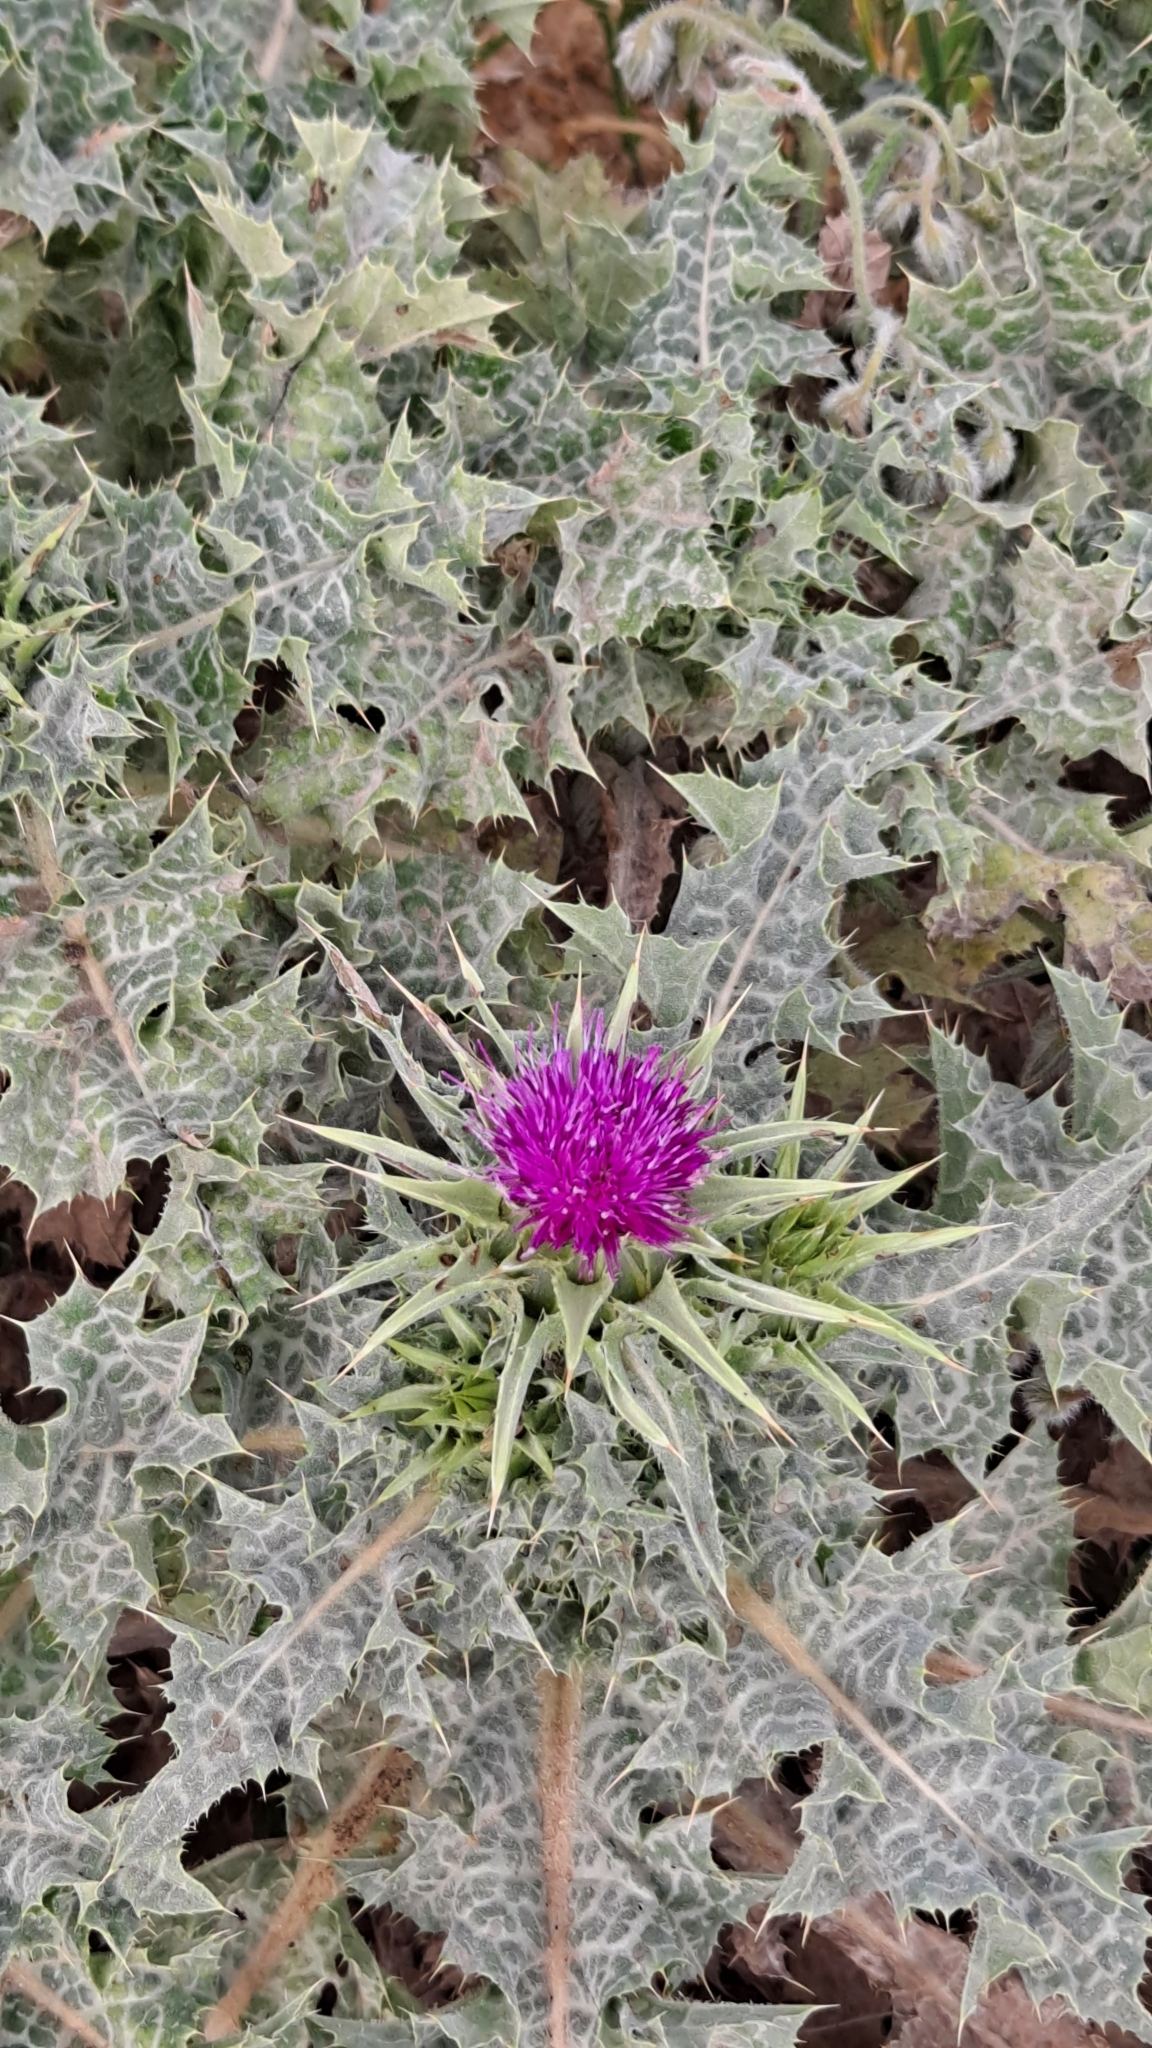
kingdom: Plantae
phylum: Tracheophyta
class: Magnoliopsida
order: Asterales
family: Asteraceae
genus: Silybum
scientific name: Silybum marianum
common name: Milk thistle
